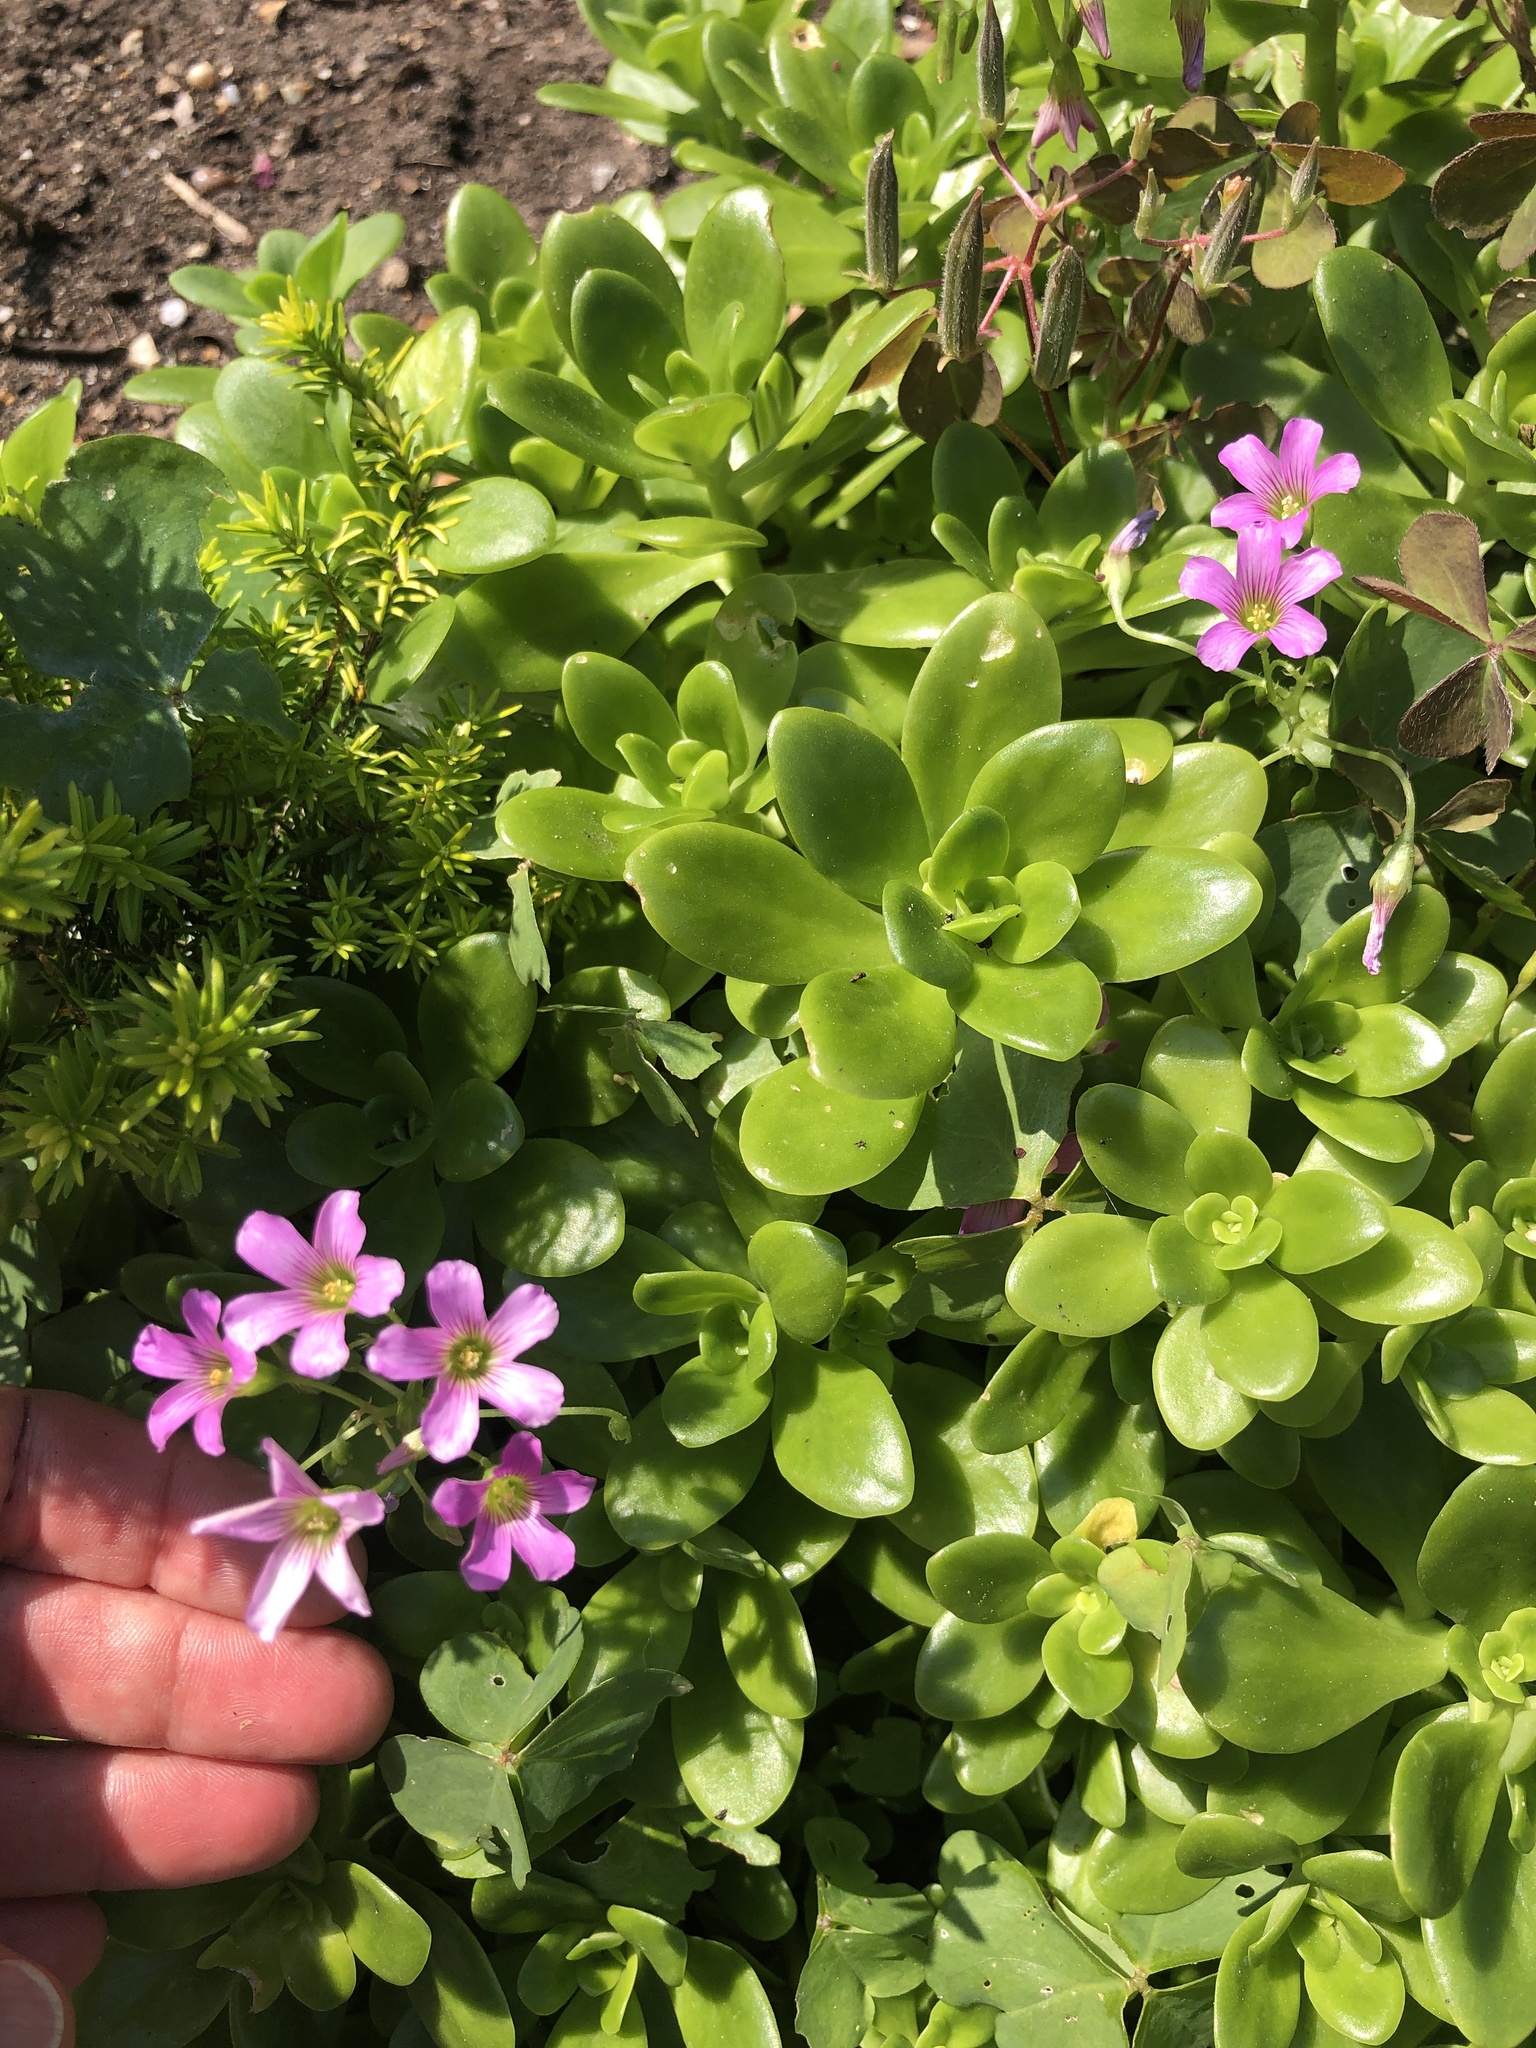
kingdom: Plantae
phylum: Tracheophyta
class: Magnoliopsida
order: Oxalidales
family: Oxalidaceae
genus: Oxalis
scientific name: Oxalis debilis
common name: Large-flowered pink-sorrel
